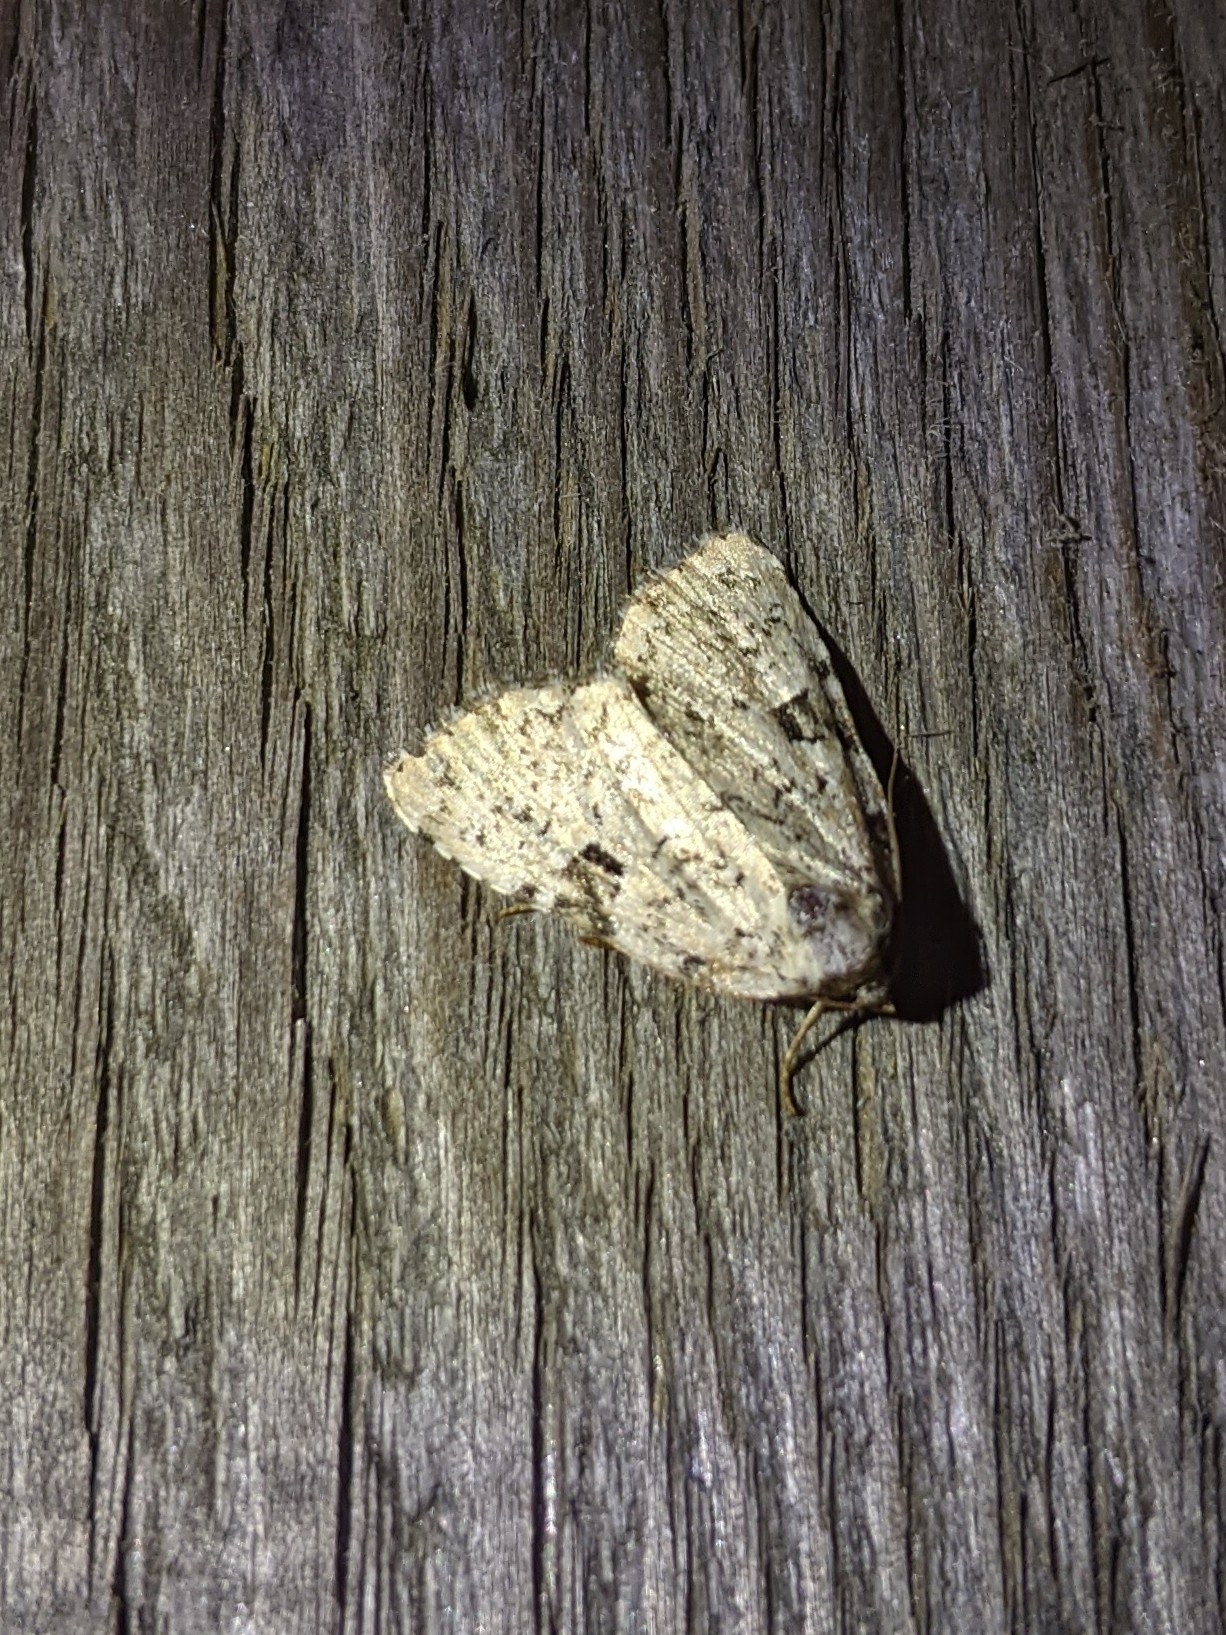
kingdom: Animalia
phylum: Arthropoda
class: Insecta
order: Lepidoptera
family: Noctuidae
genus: Leuconycta
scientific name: Leuconycta diphteroides
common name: Green leuconycta moth
